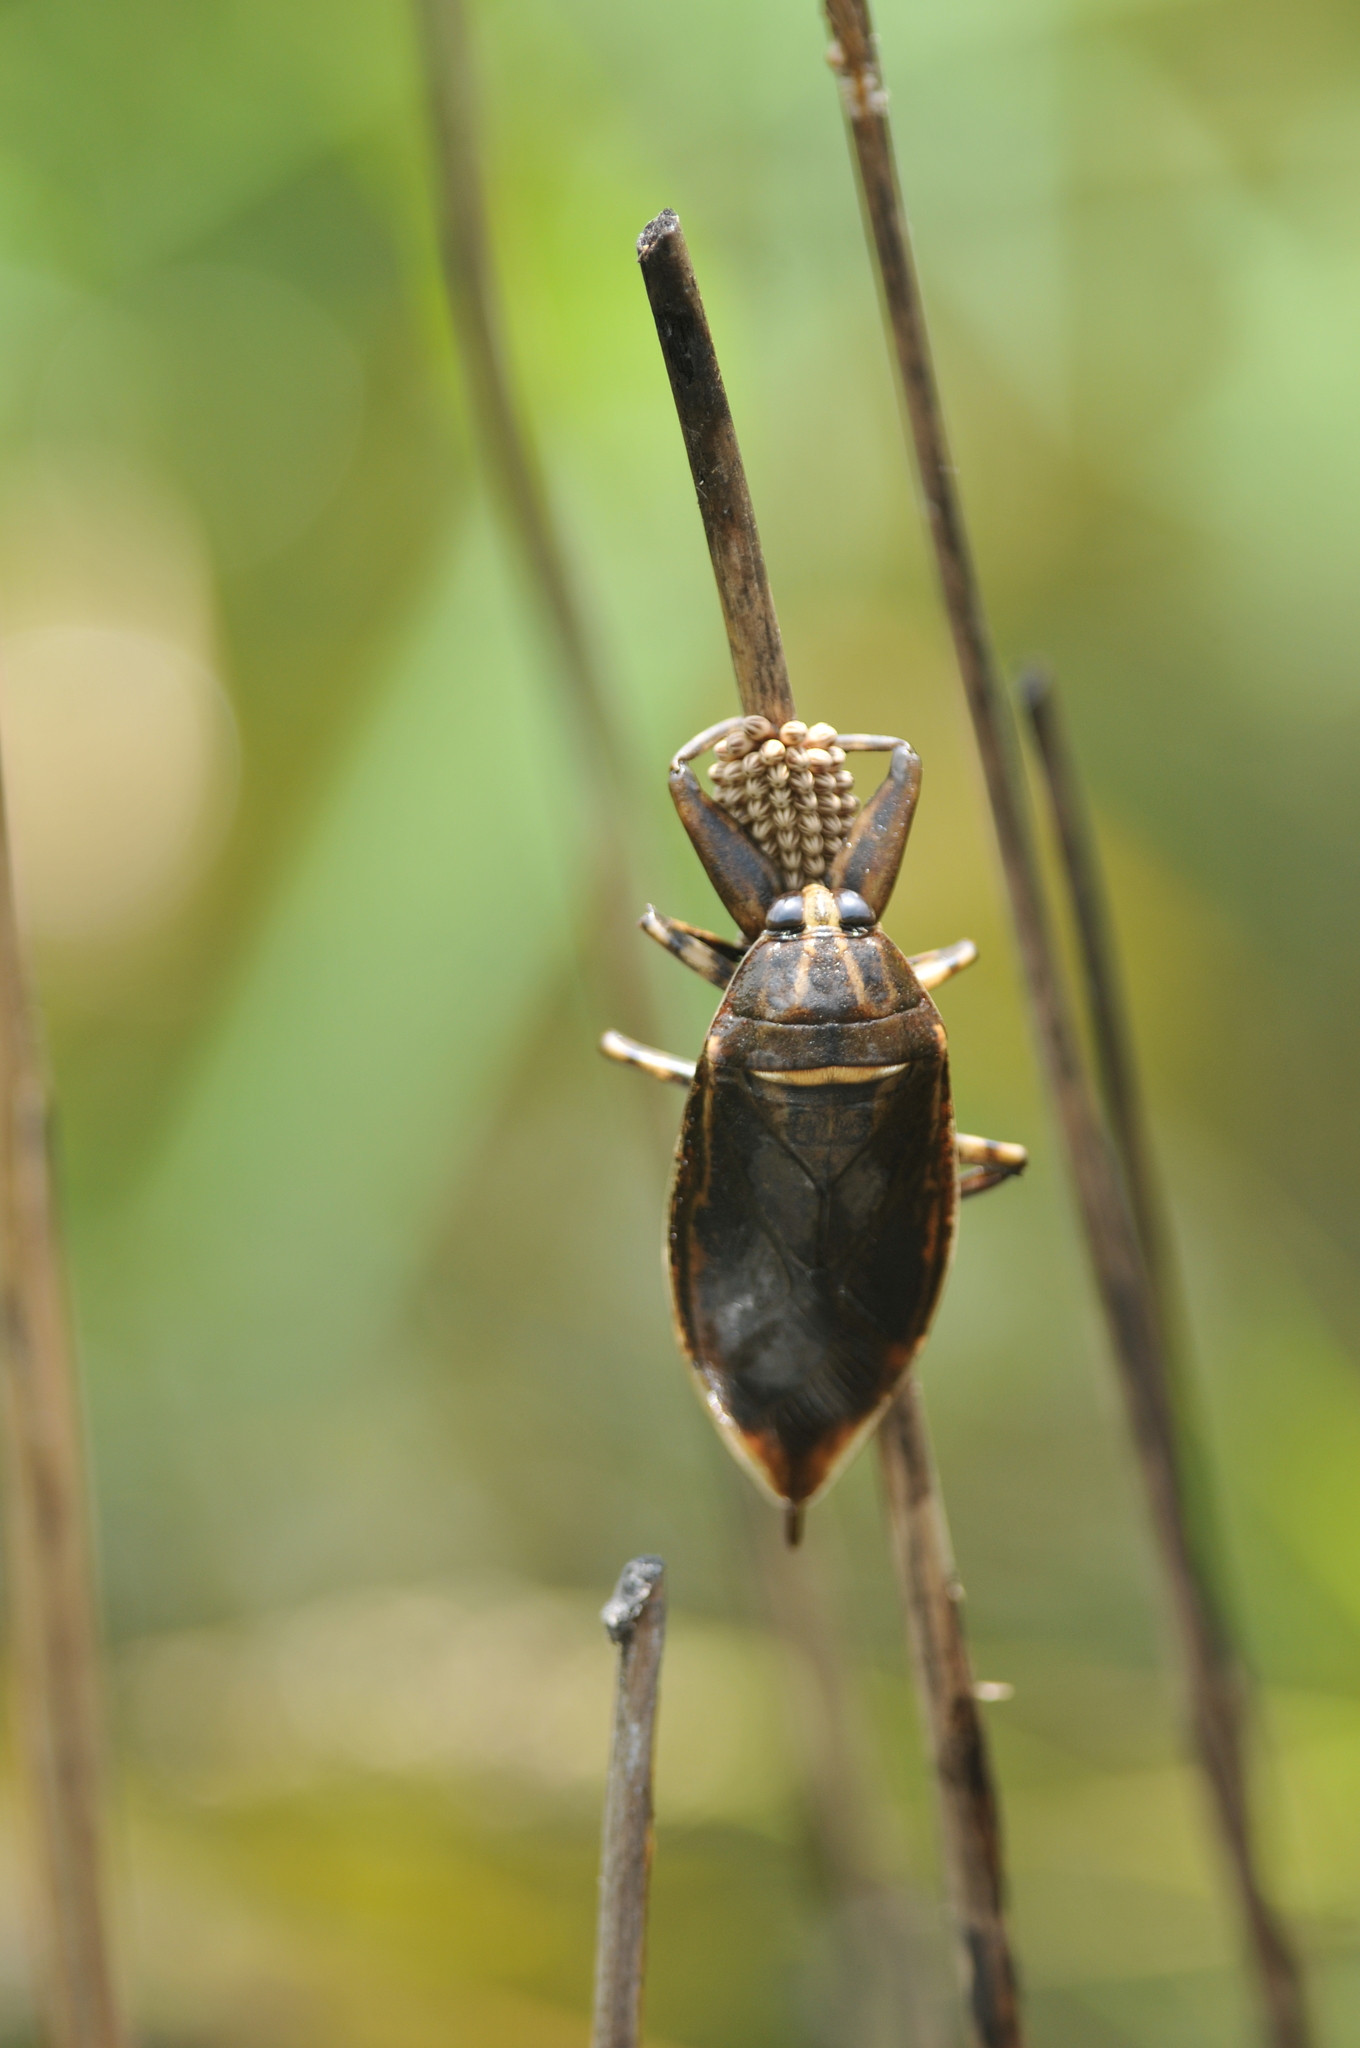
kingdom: Animalia
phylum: Arthropoda
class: Insecta
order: Hemiptera
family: Belostomatidae
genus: Lethocerus
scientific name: Lethocerus indicus
